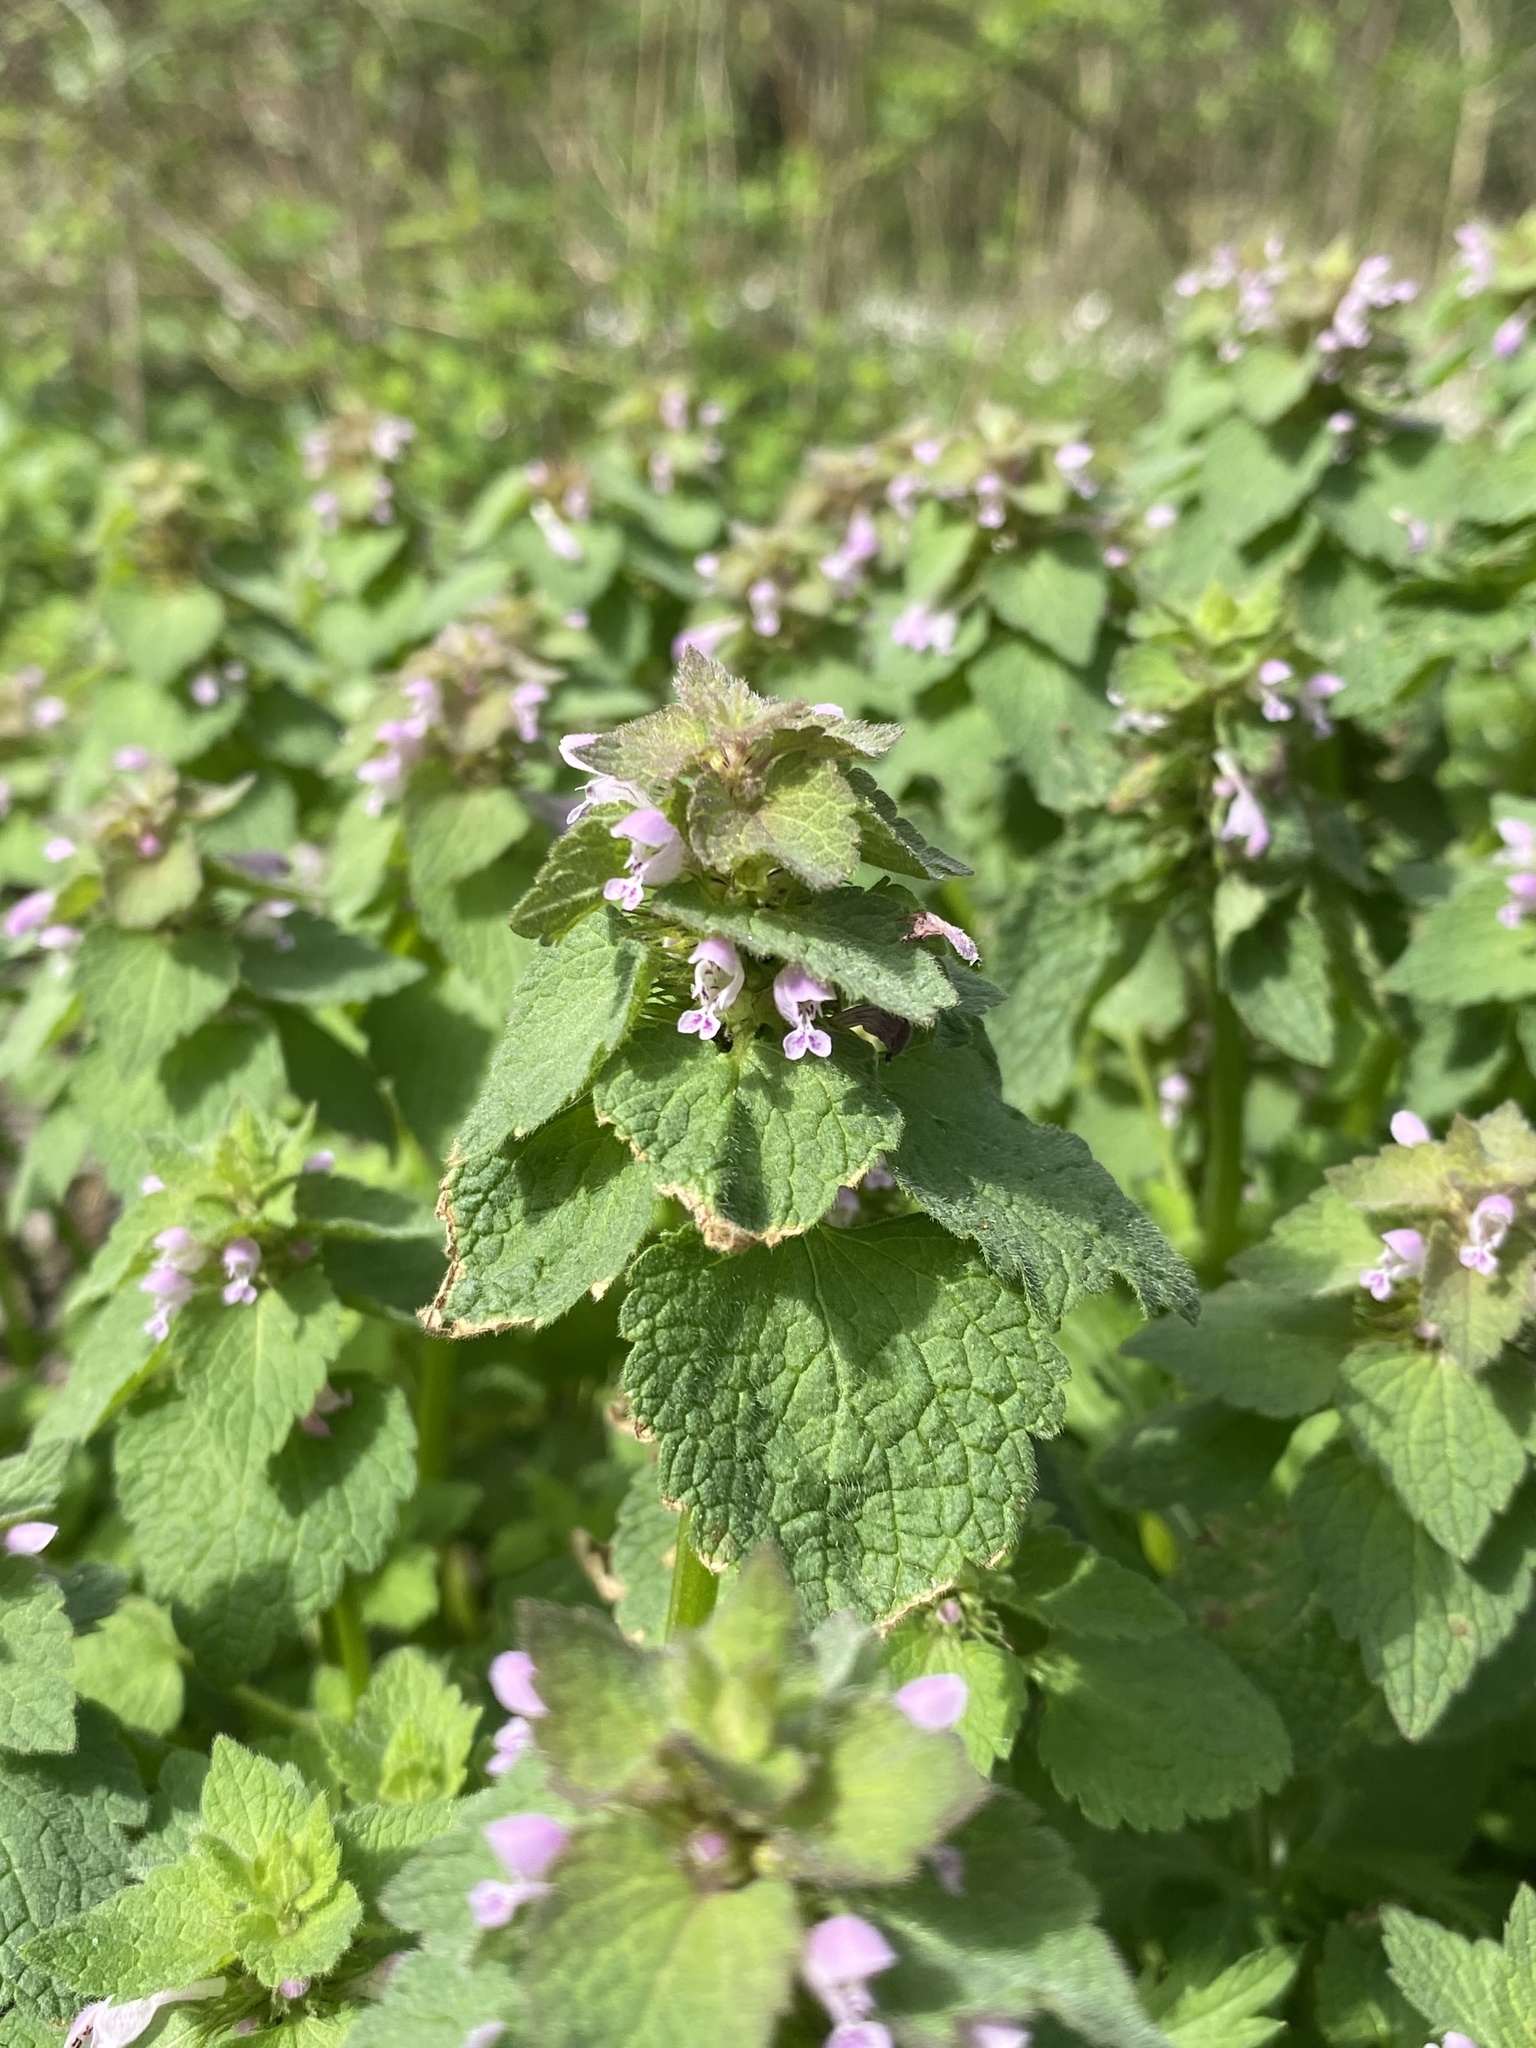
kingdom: Plantae
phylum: Tracheophyta
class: Magnoliopsida
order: Lamiales
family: Lamiaceae
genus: Lamium
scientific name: Lamium purpureum
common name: Red dead-nettle
